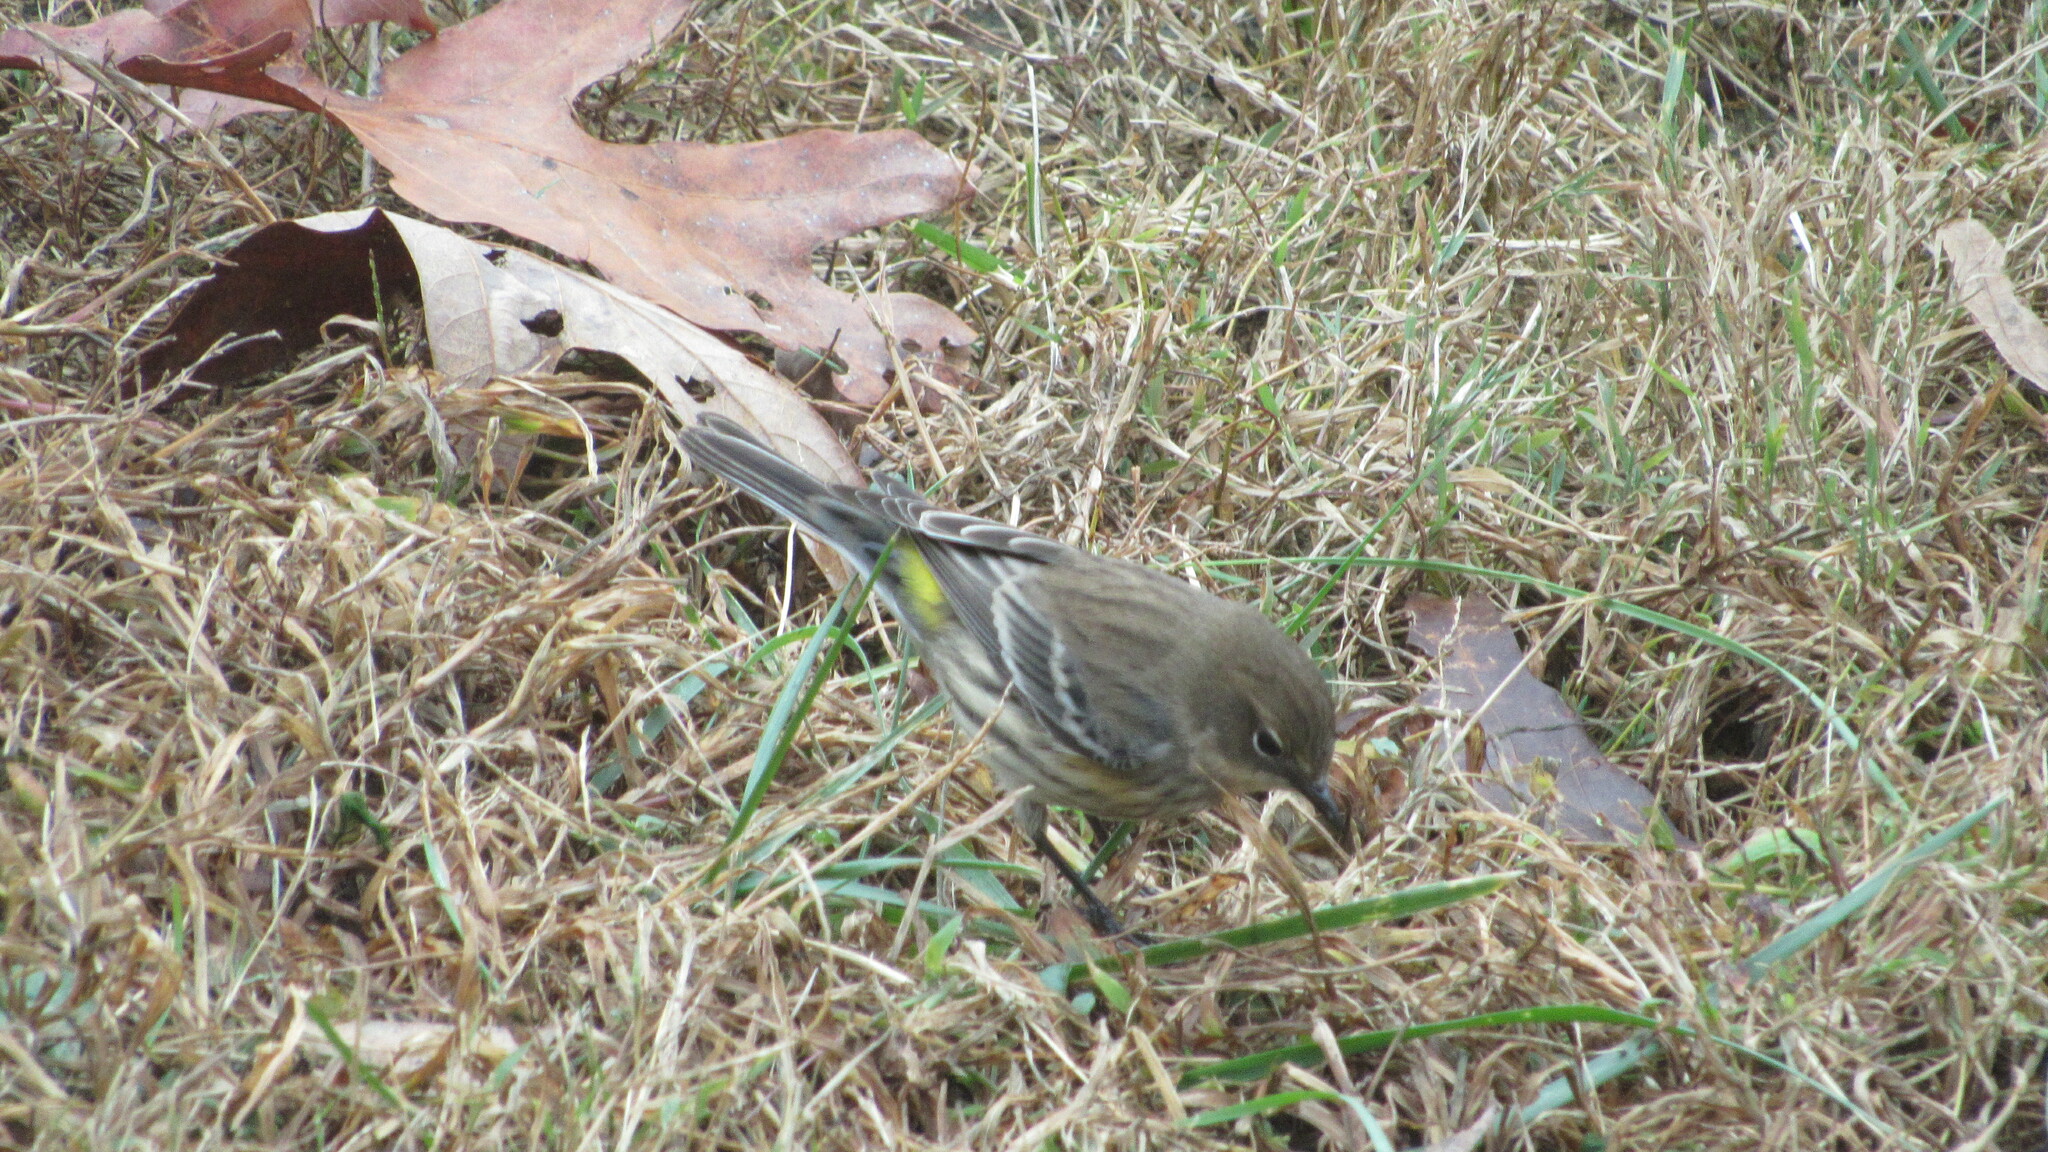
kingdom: Animalia
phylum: Chordata
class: Aves
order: Passeriformes
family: Parulidae
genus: Setophaga
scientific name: Setophaga coronata
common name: Myrtle warbler
